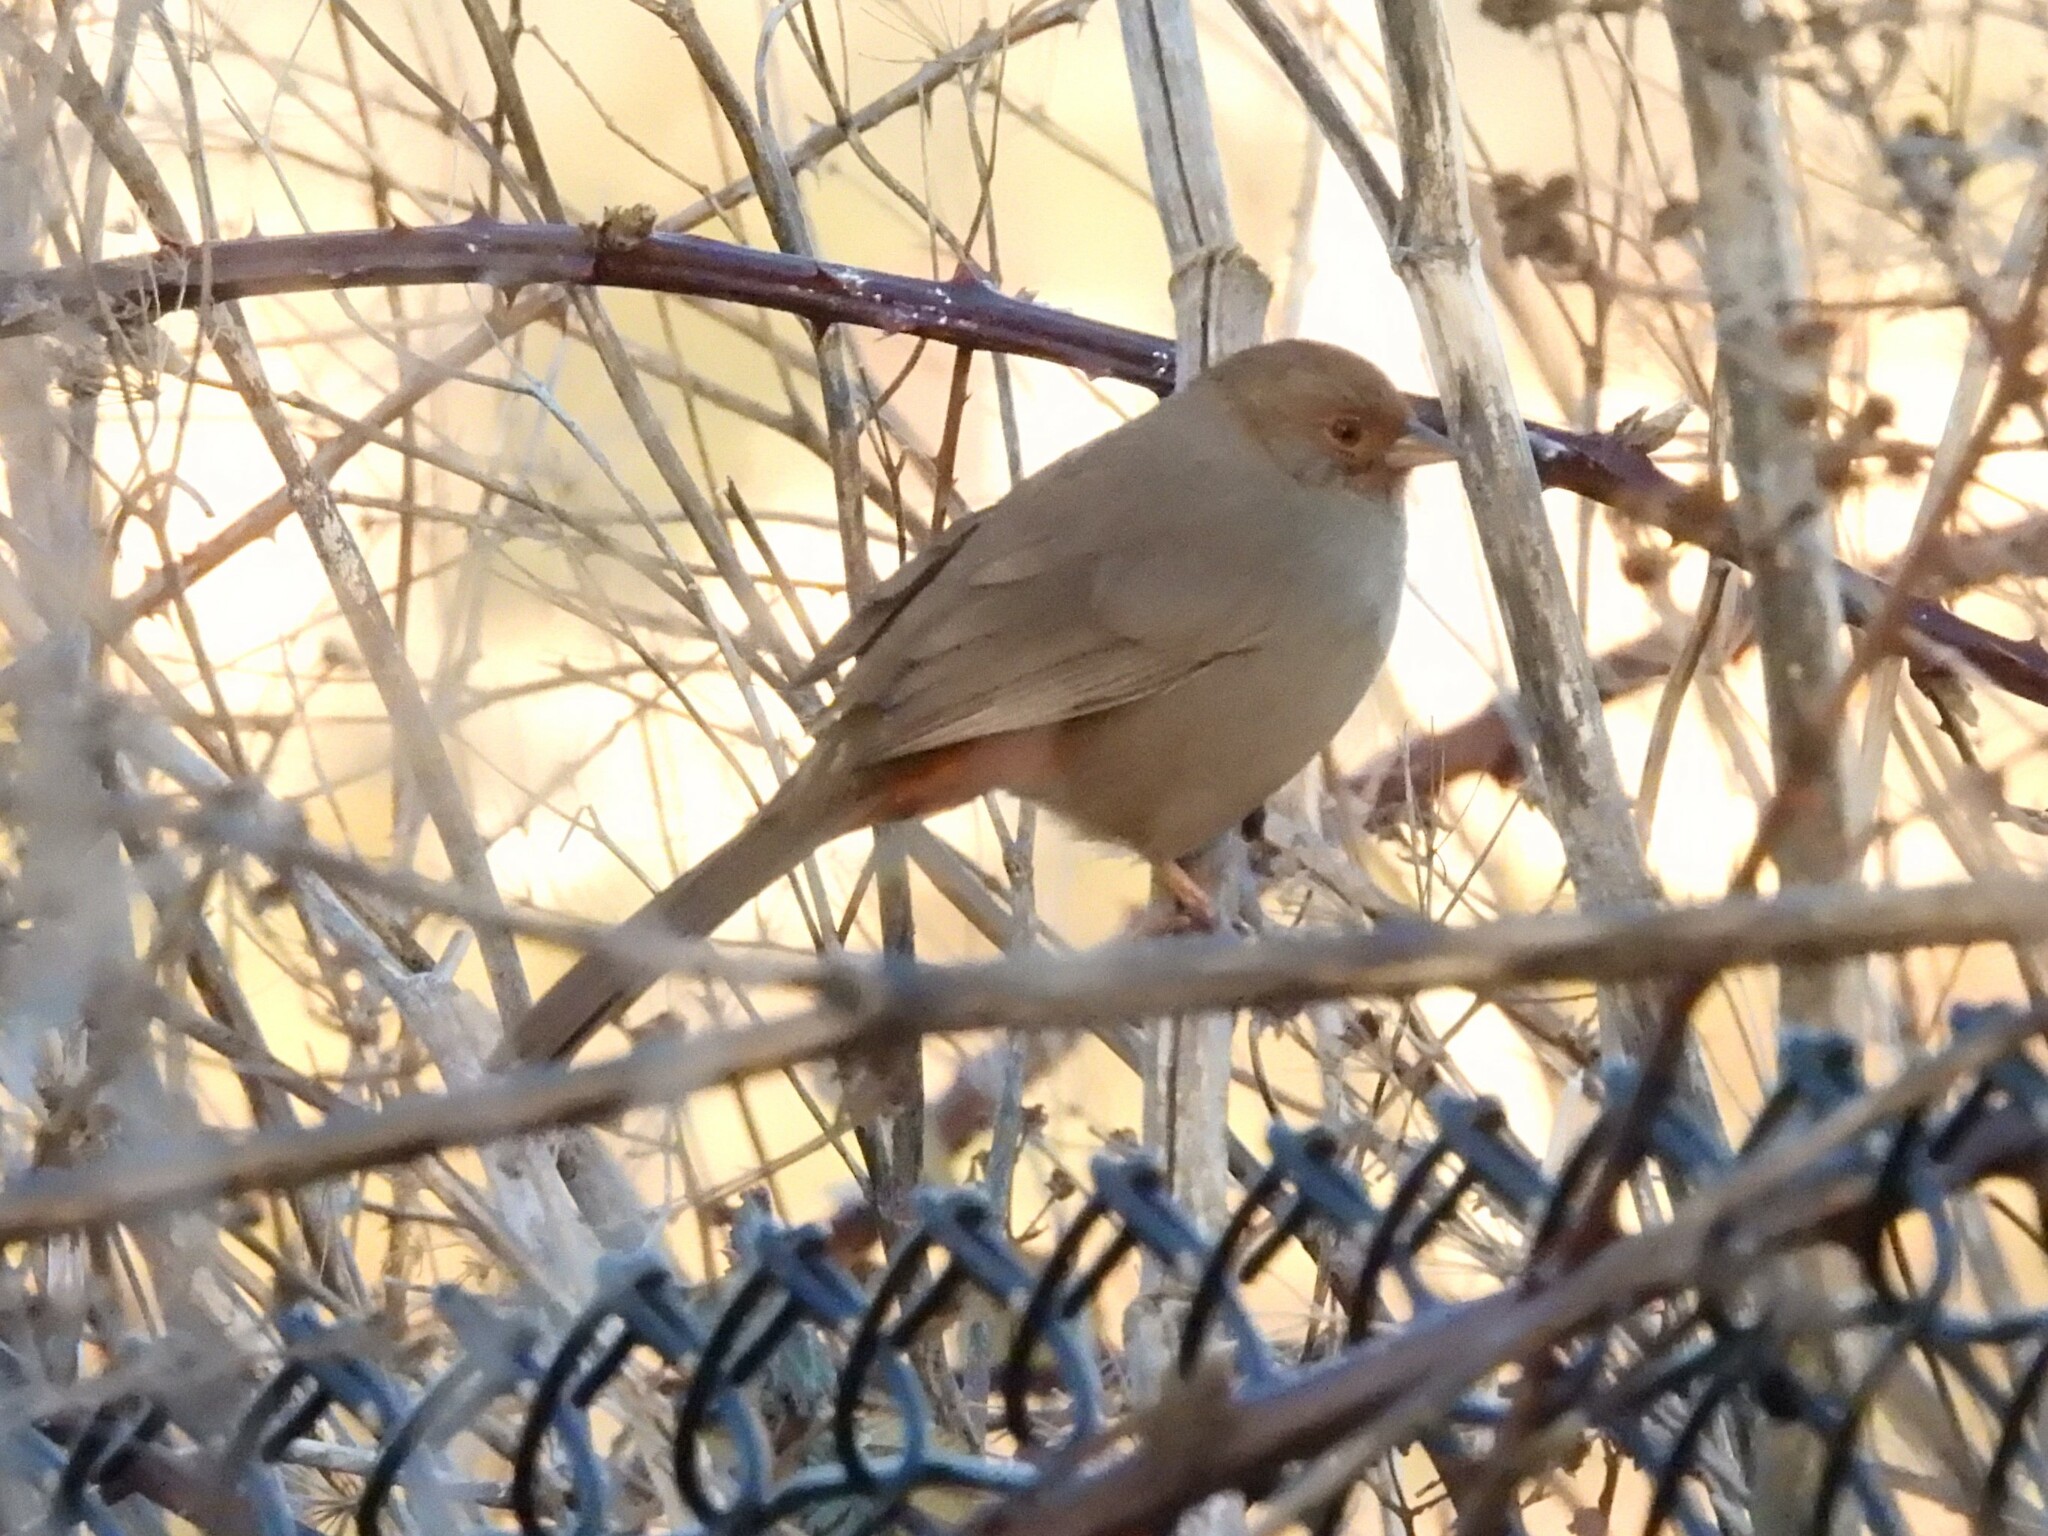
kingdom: Animalia
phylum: Chordata
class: Aves
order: Passeriformes
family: Passerellidae
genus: Melozone
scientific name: Melozone crissalis
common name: California towhee
